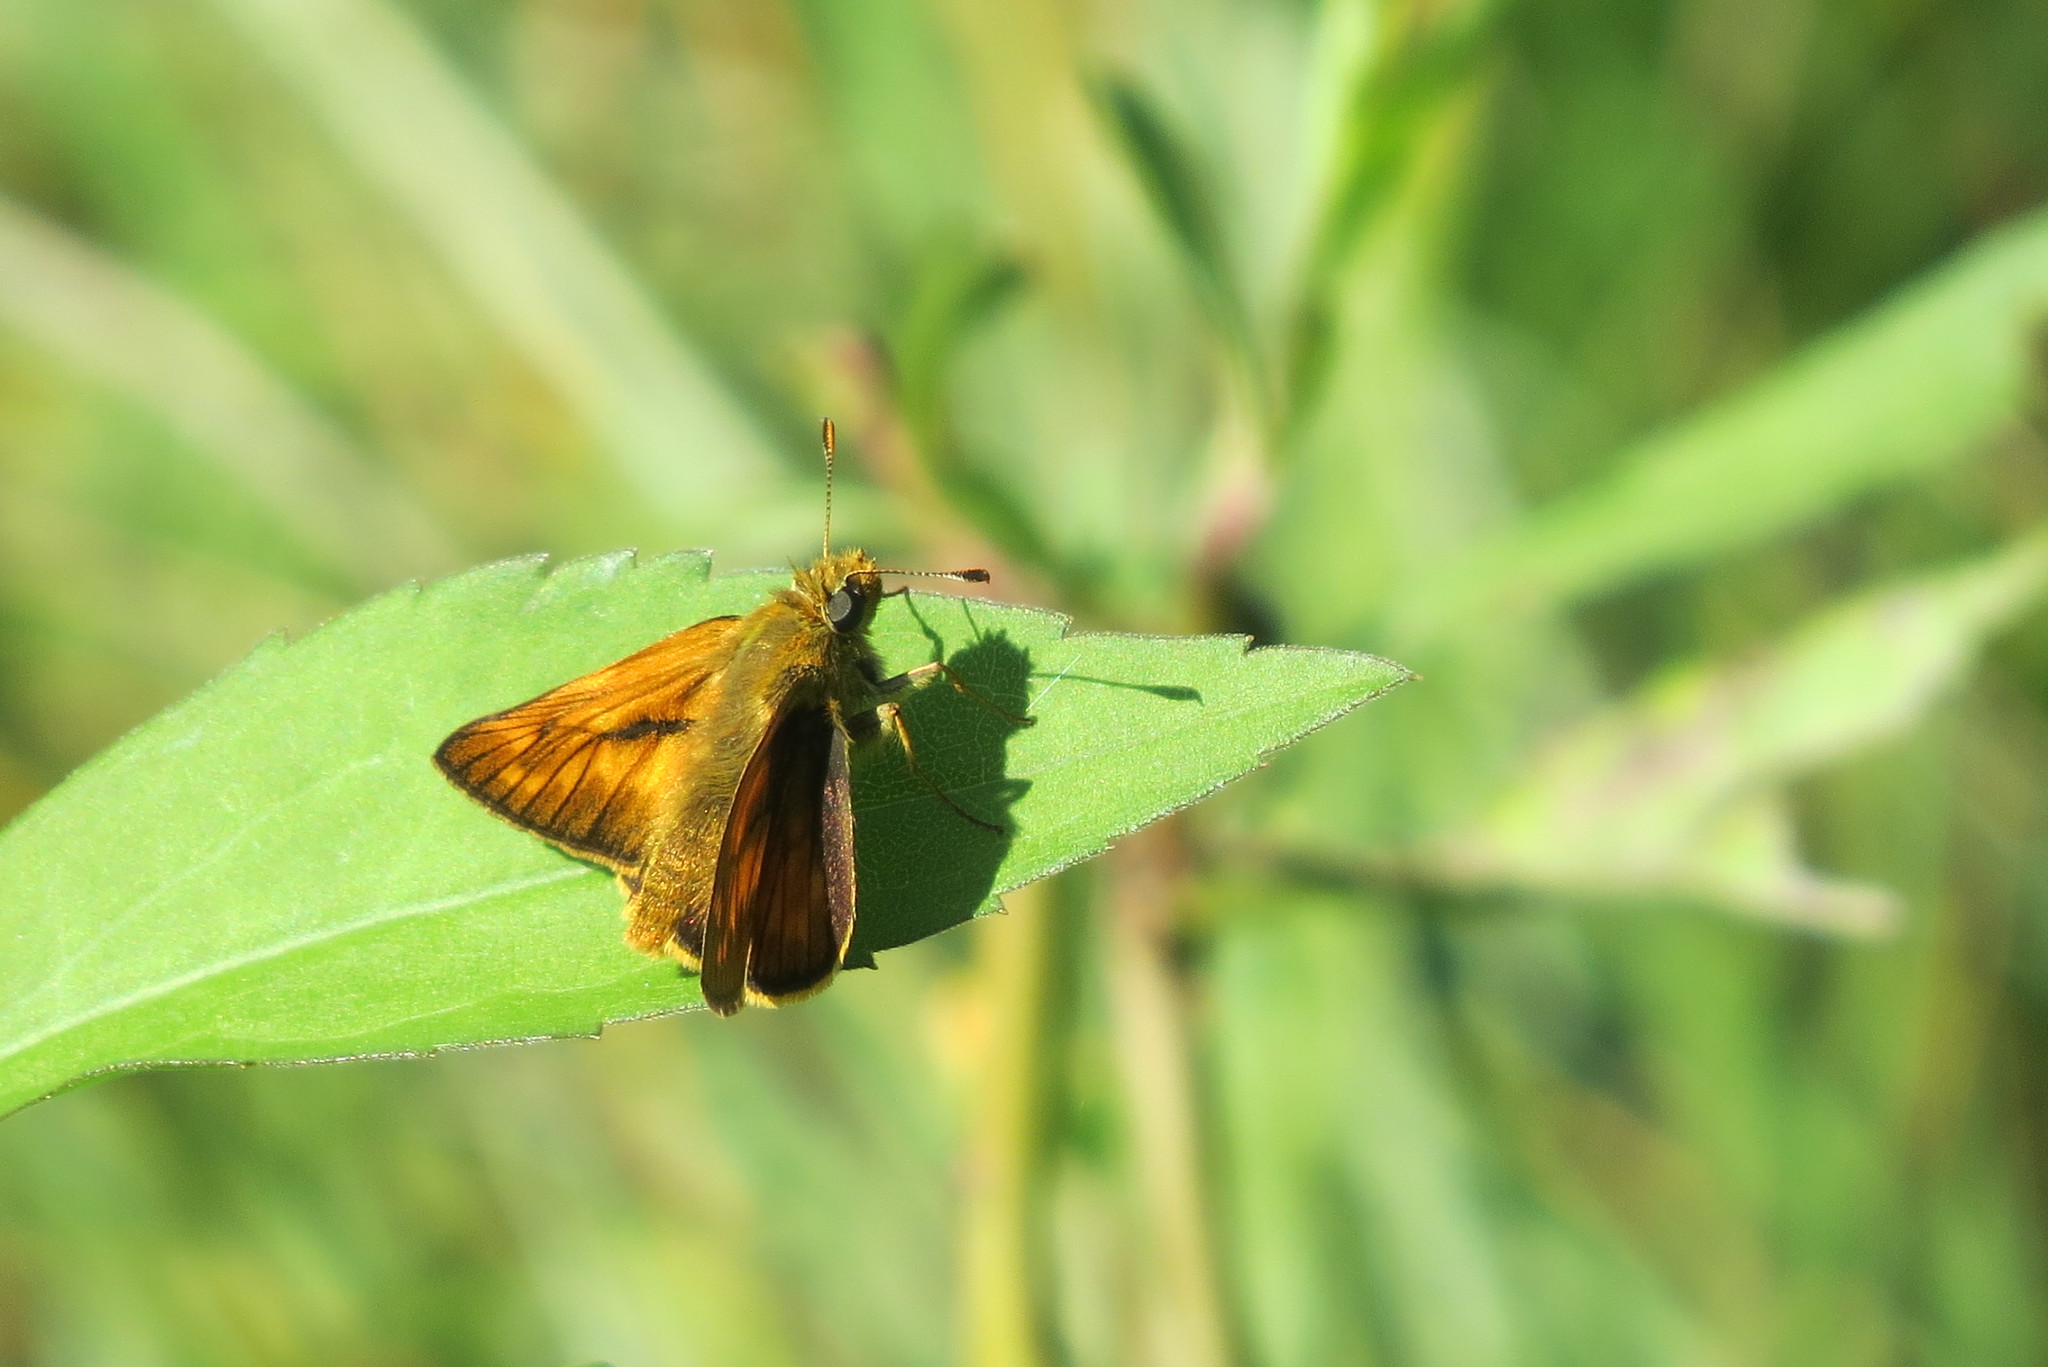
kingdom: Animalia
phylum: Arthropoda
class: Insecta
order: Lepidoptera
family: Hesperiidae
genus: Ochlodes
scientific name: Ochlodes venata
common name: Large skipper
